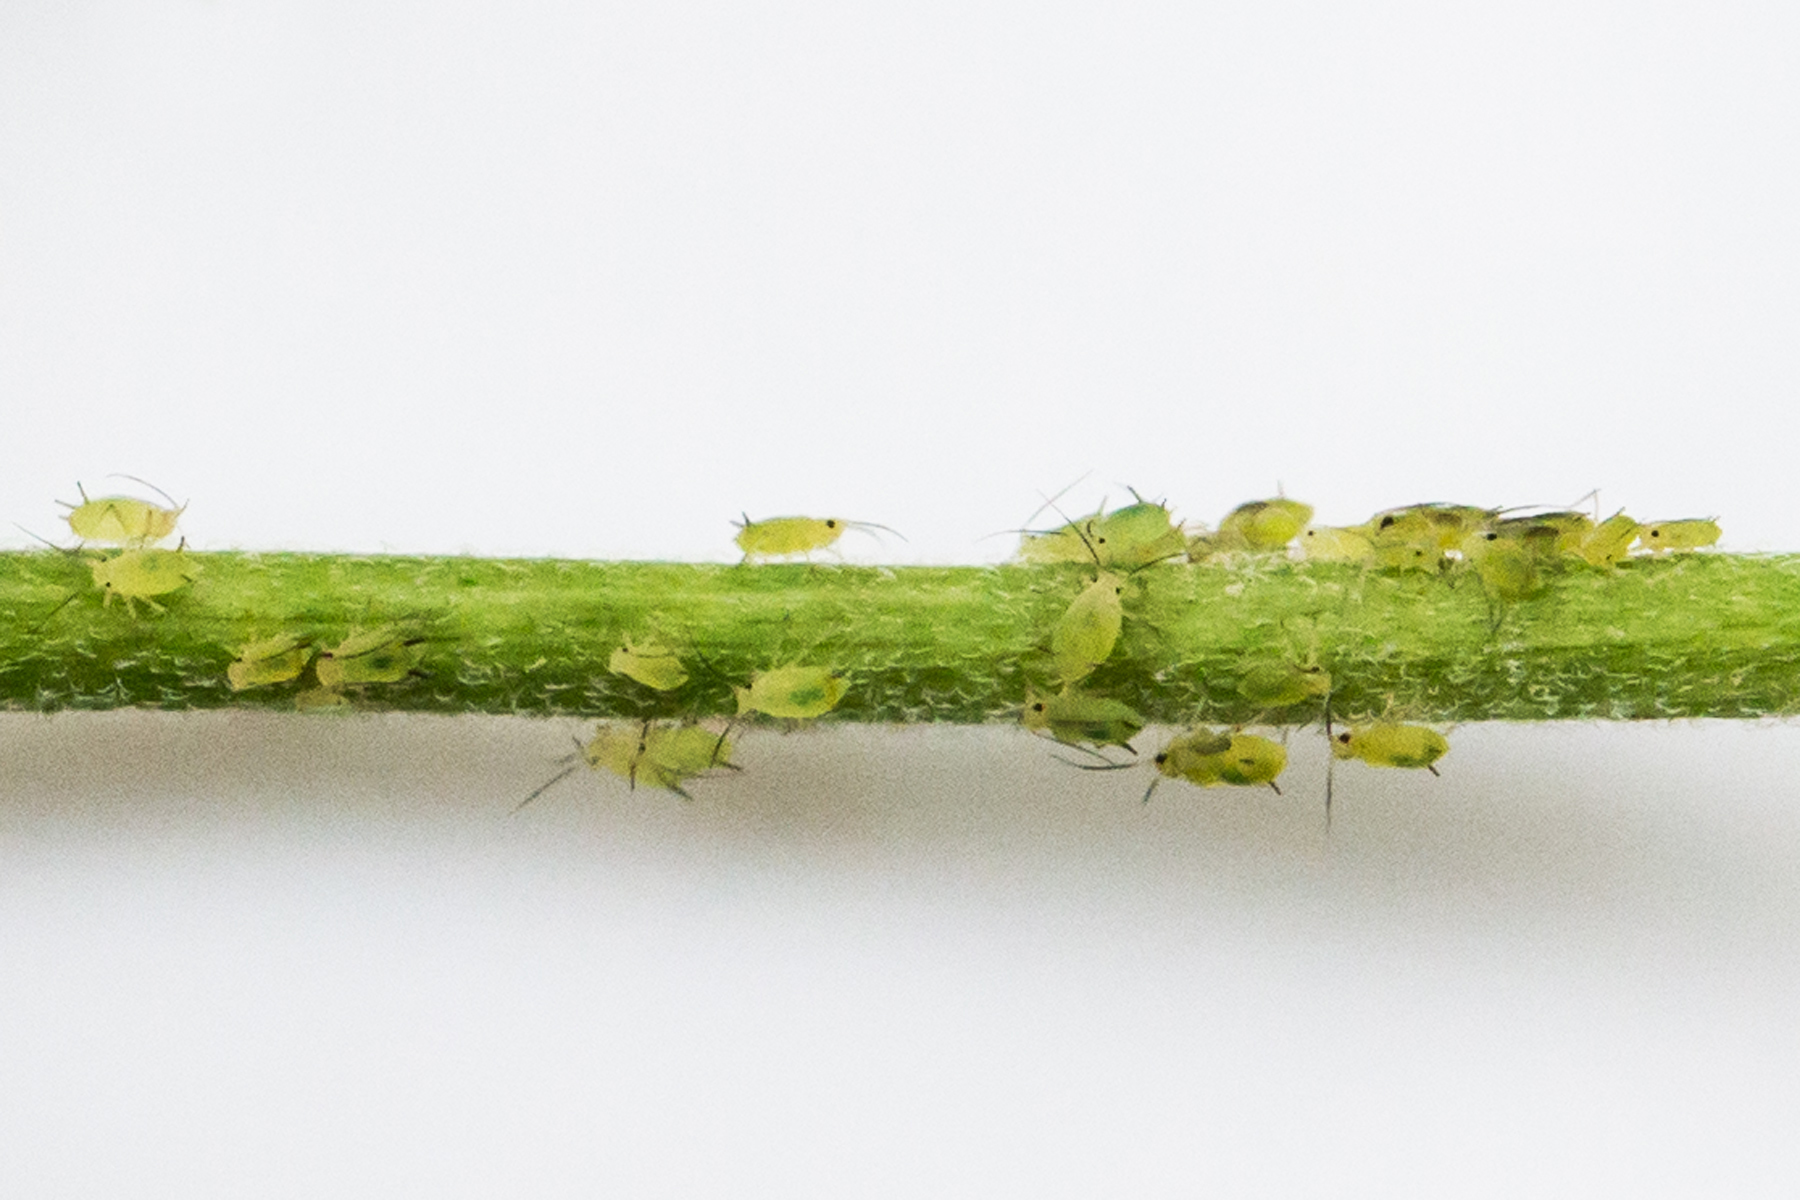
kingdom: Animalia
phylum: Arthropoda
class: Insecta
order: Hemiptera
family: Aphididae
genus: Aphis
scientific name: Aphis coreopsidis
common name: Aphid
